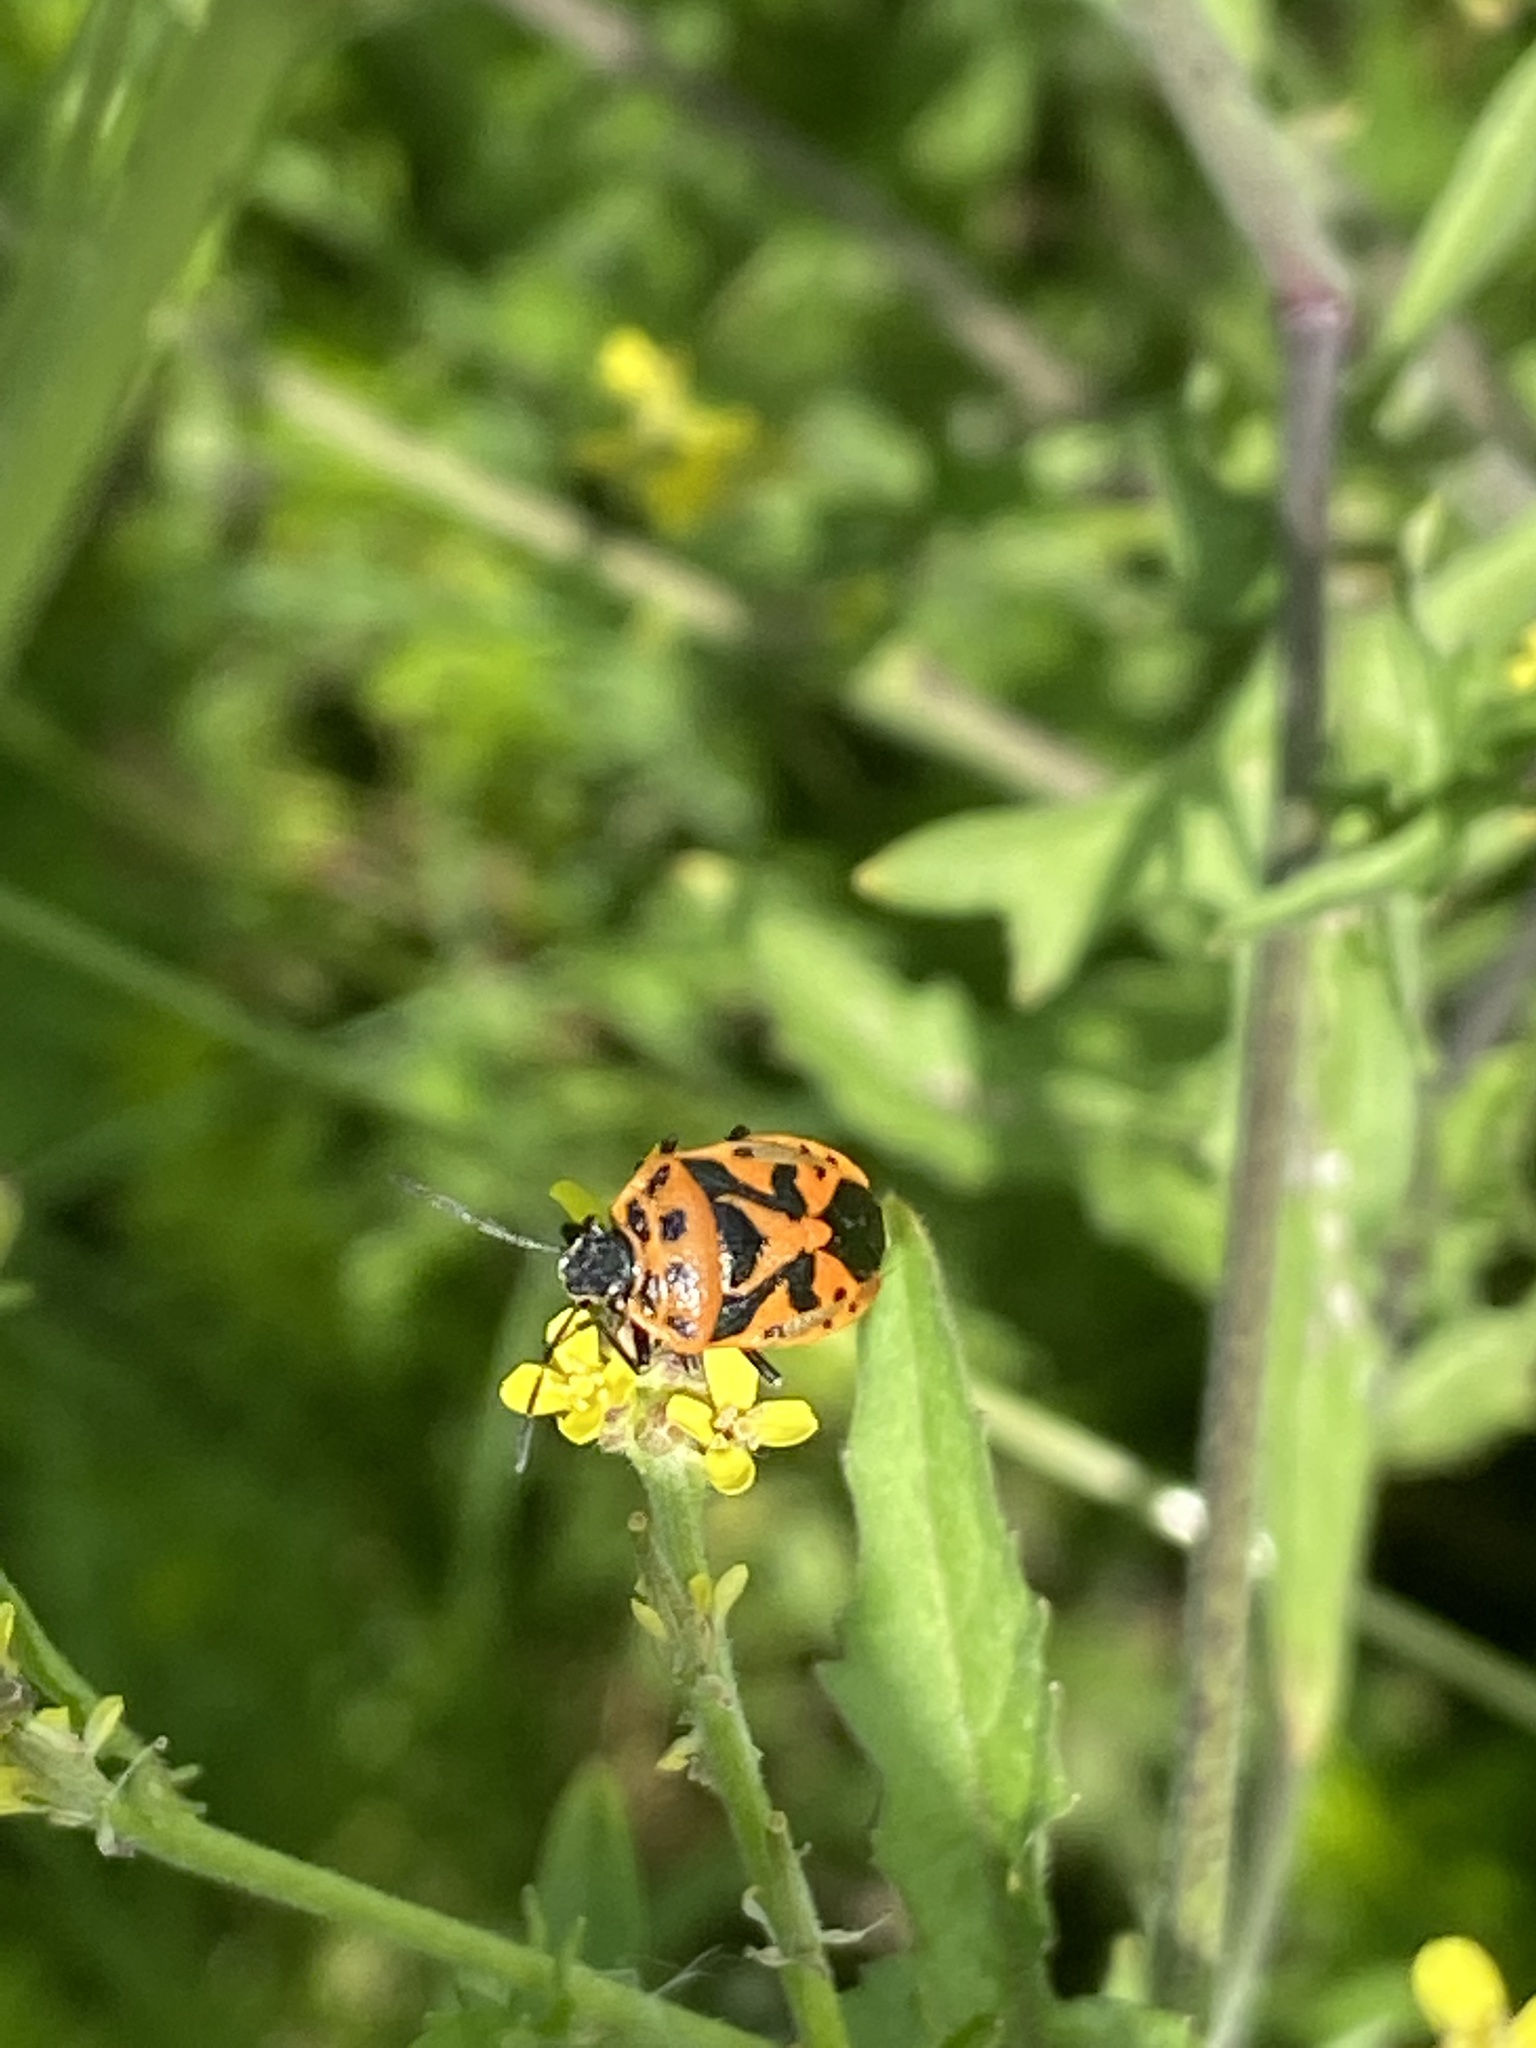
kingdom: Animalia
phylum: Arthropoda
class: Insecta
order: Hemiptera
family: Pentatomidae
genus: Eurydema
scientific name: Eurydema ornata
